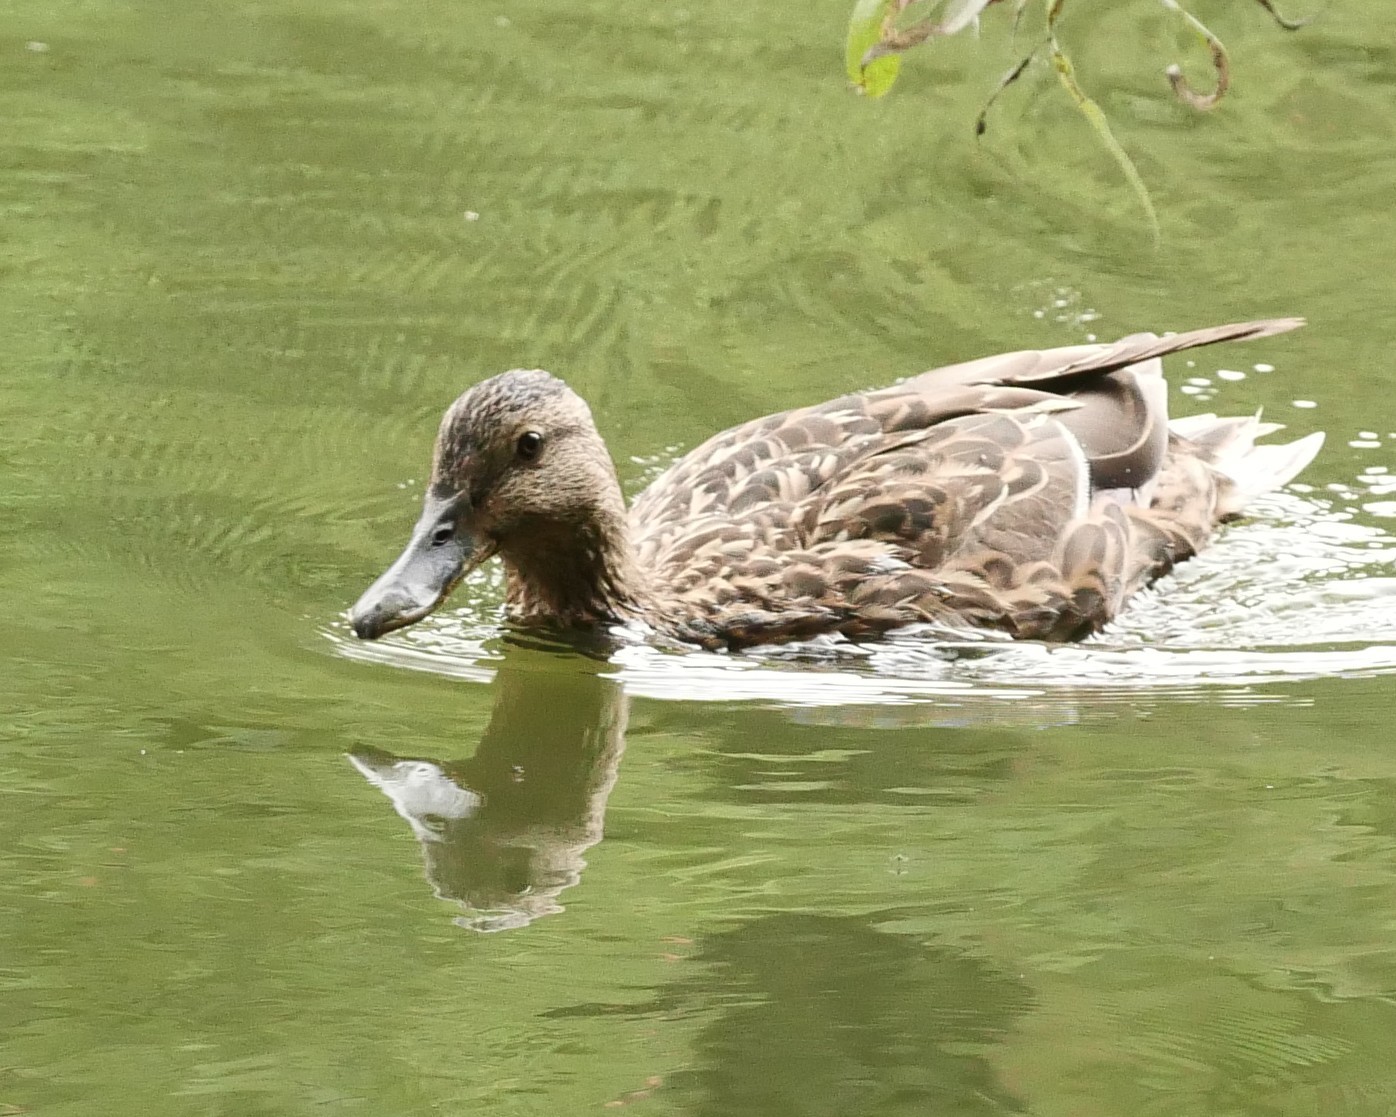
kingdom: Animalia
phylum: Chordata
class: Aves
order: Anseriformes
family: Anatidae
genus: Anas
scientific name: Anas platyrhynchos
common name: Mallard
